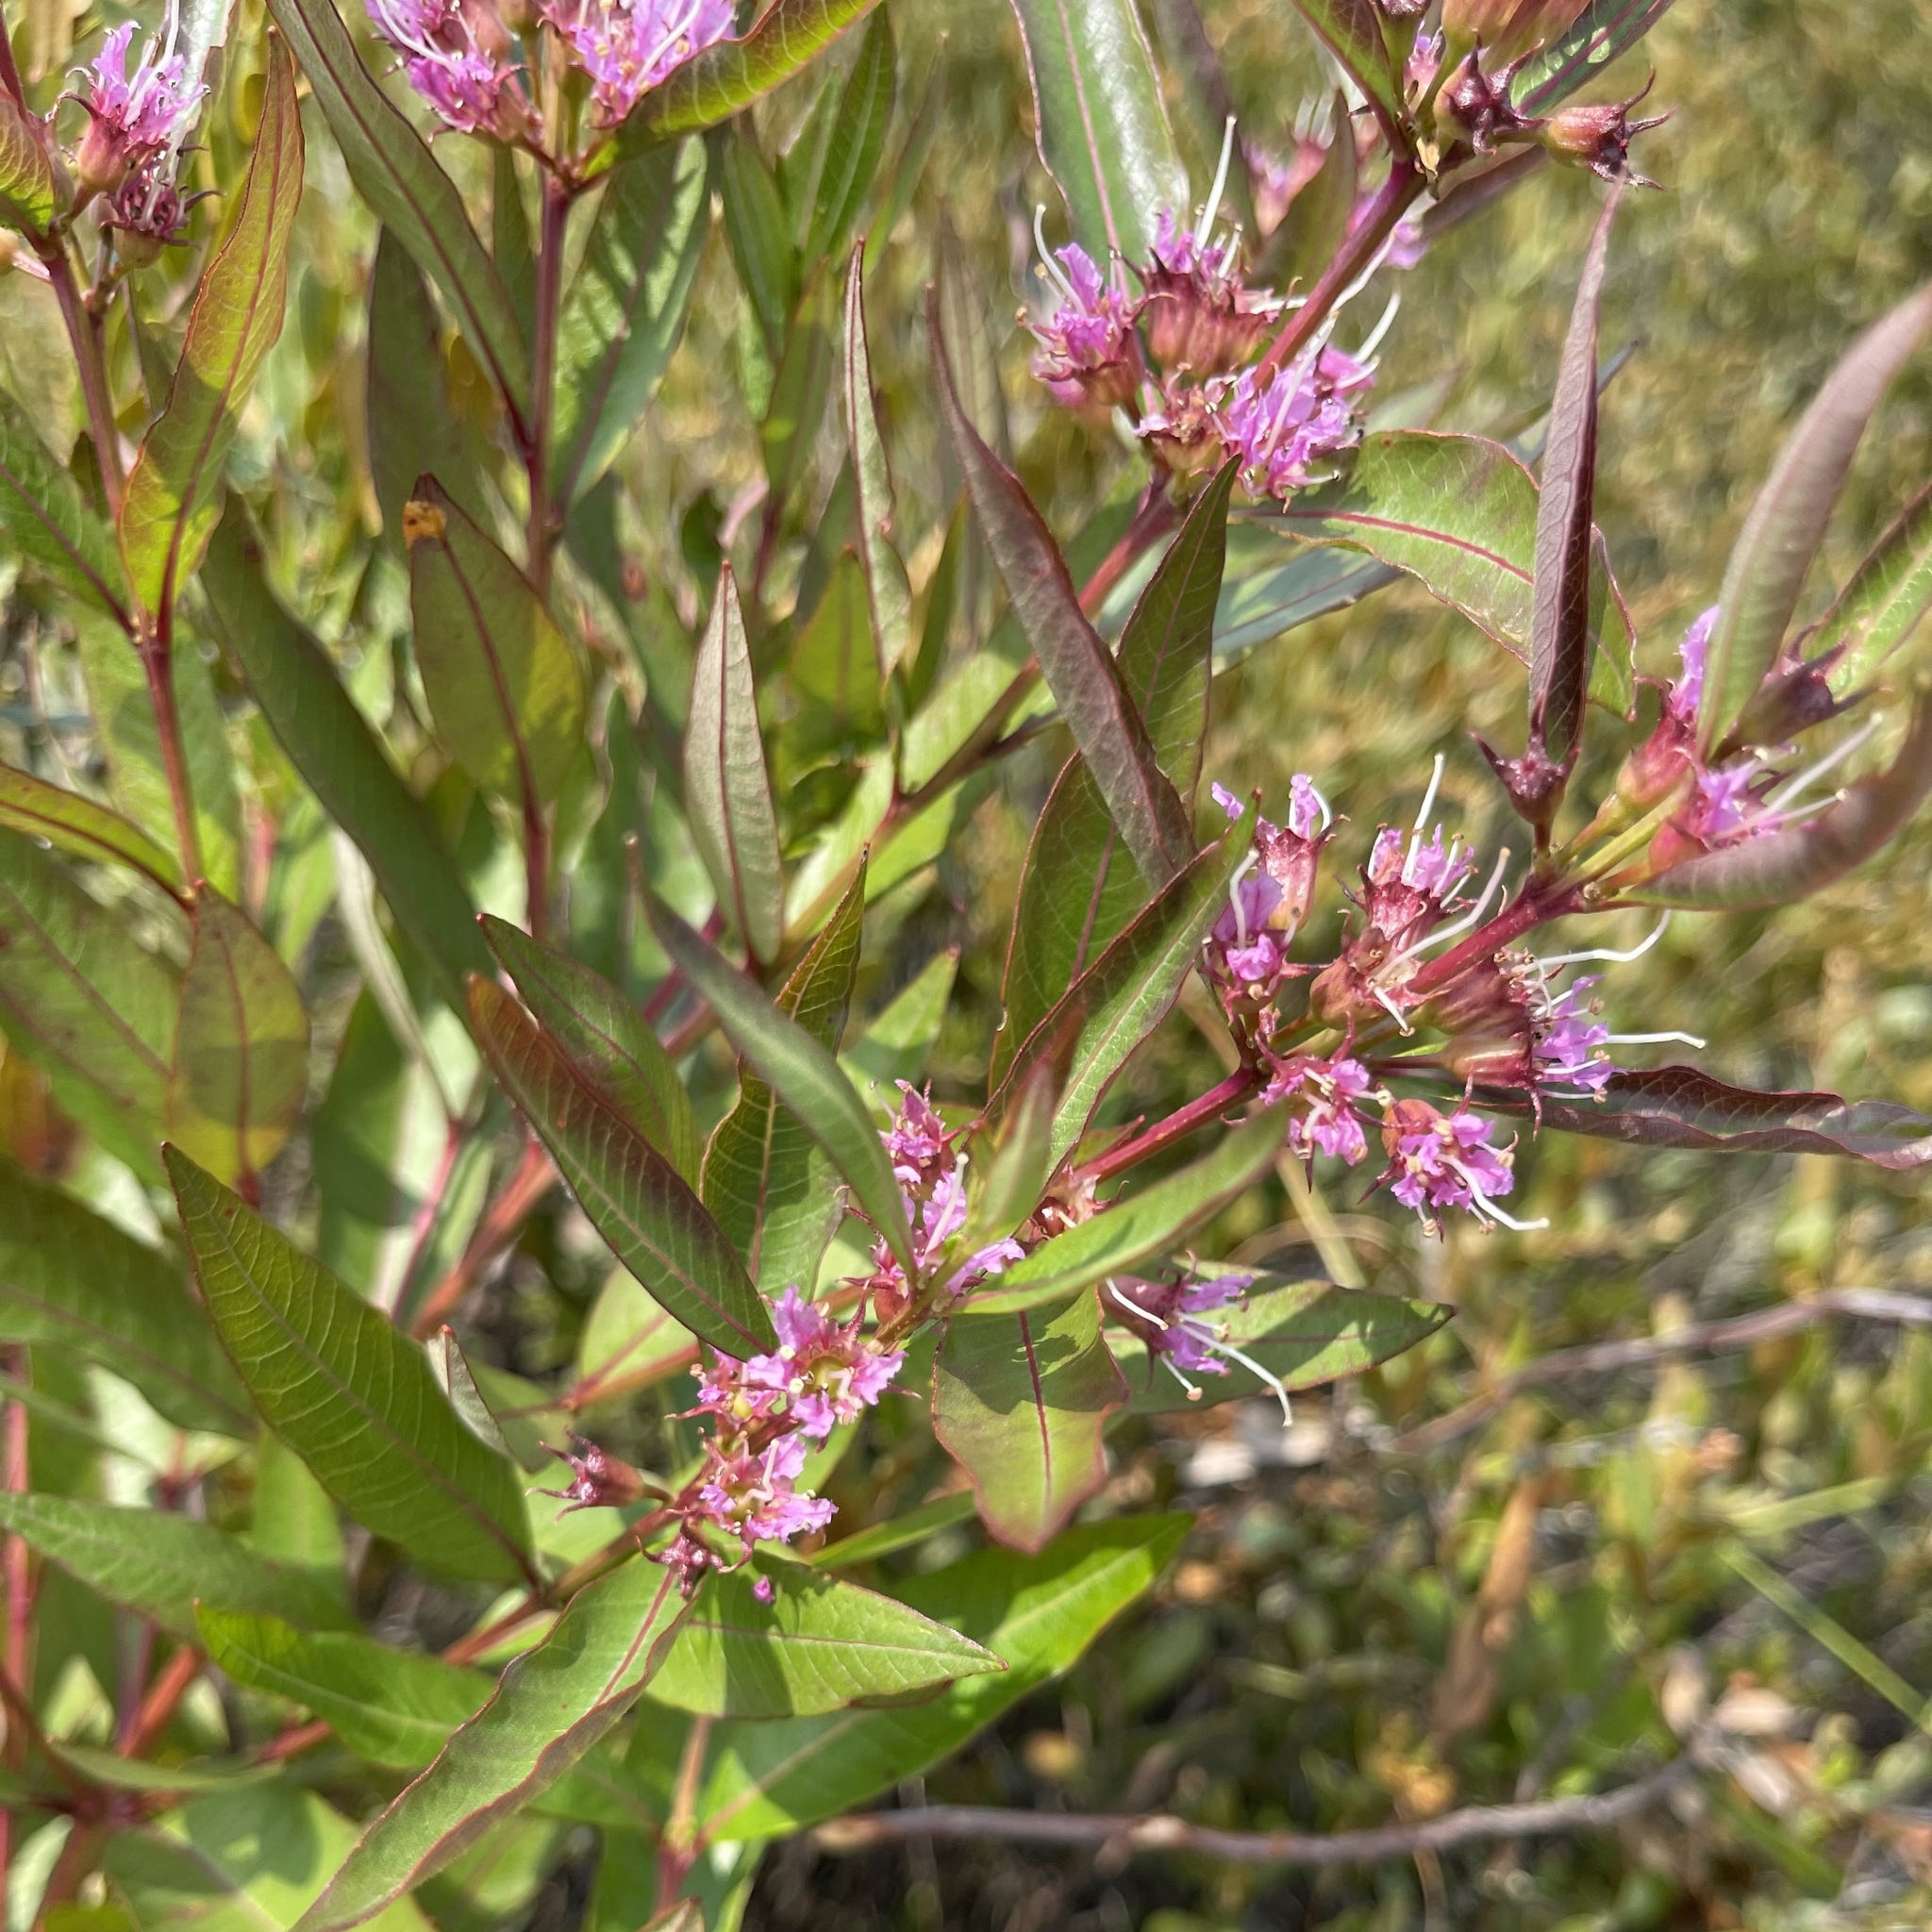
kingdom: Plantae
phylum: Tracheophyta
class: Magnoliopsida
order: Myrtales
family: Lythraceae
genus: Decodon
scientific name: Decodon verticillatus
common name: Hairy swamp loosestrife
